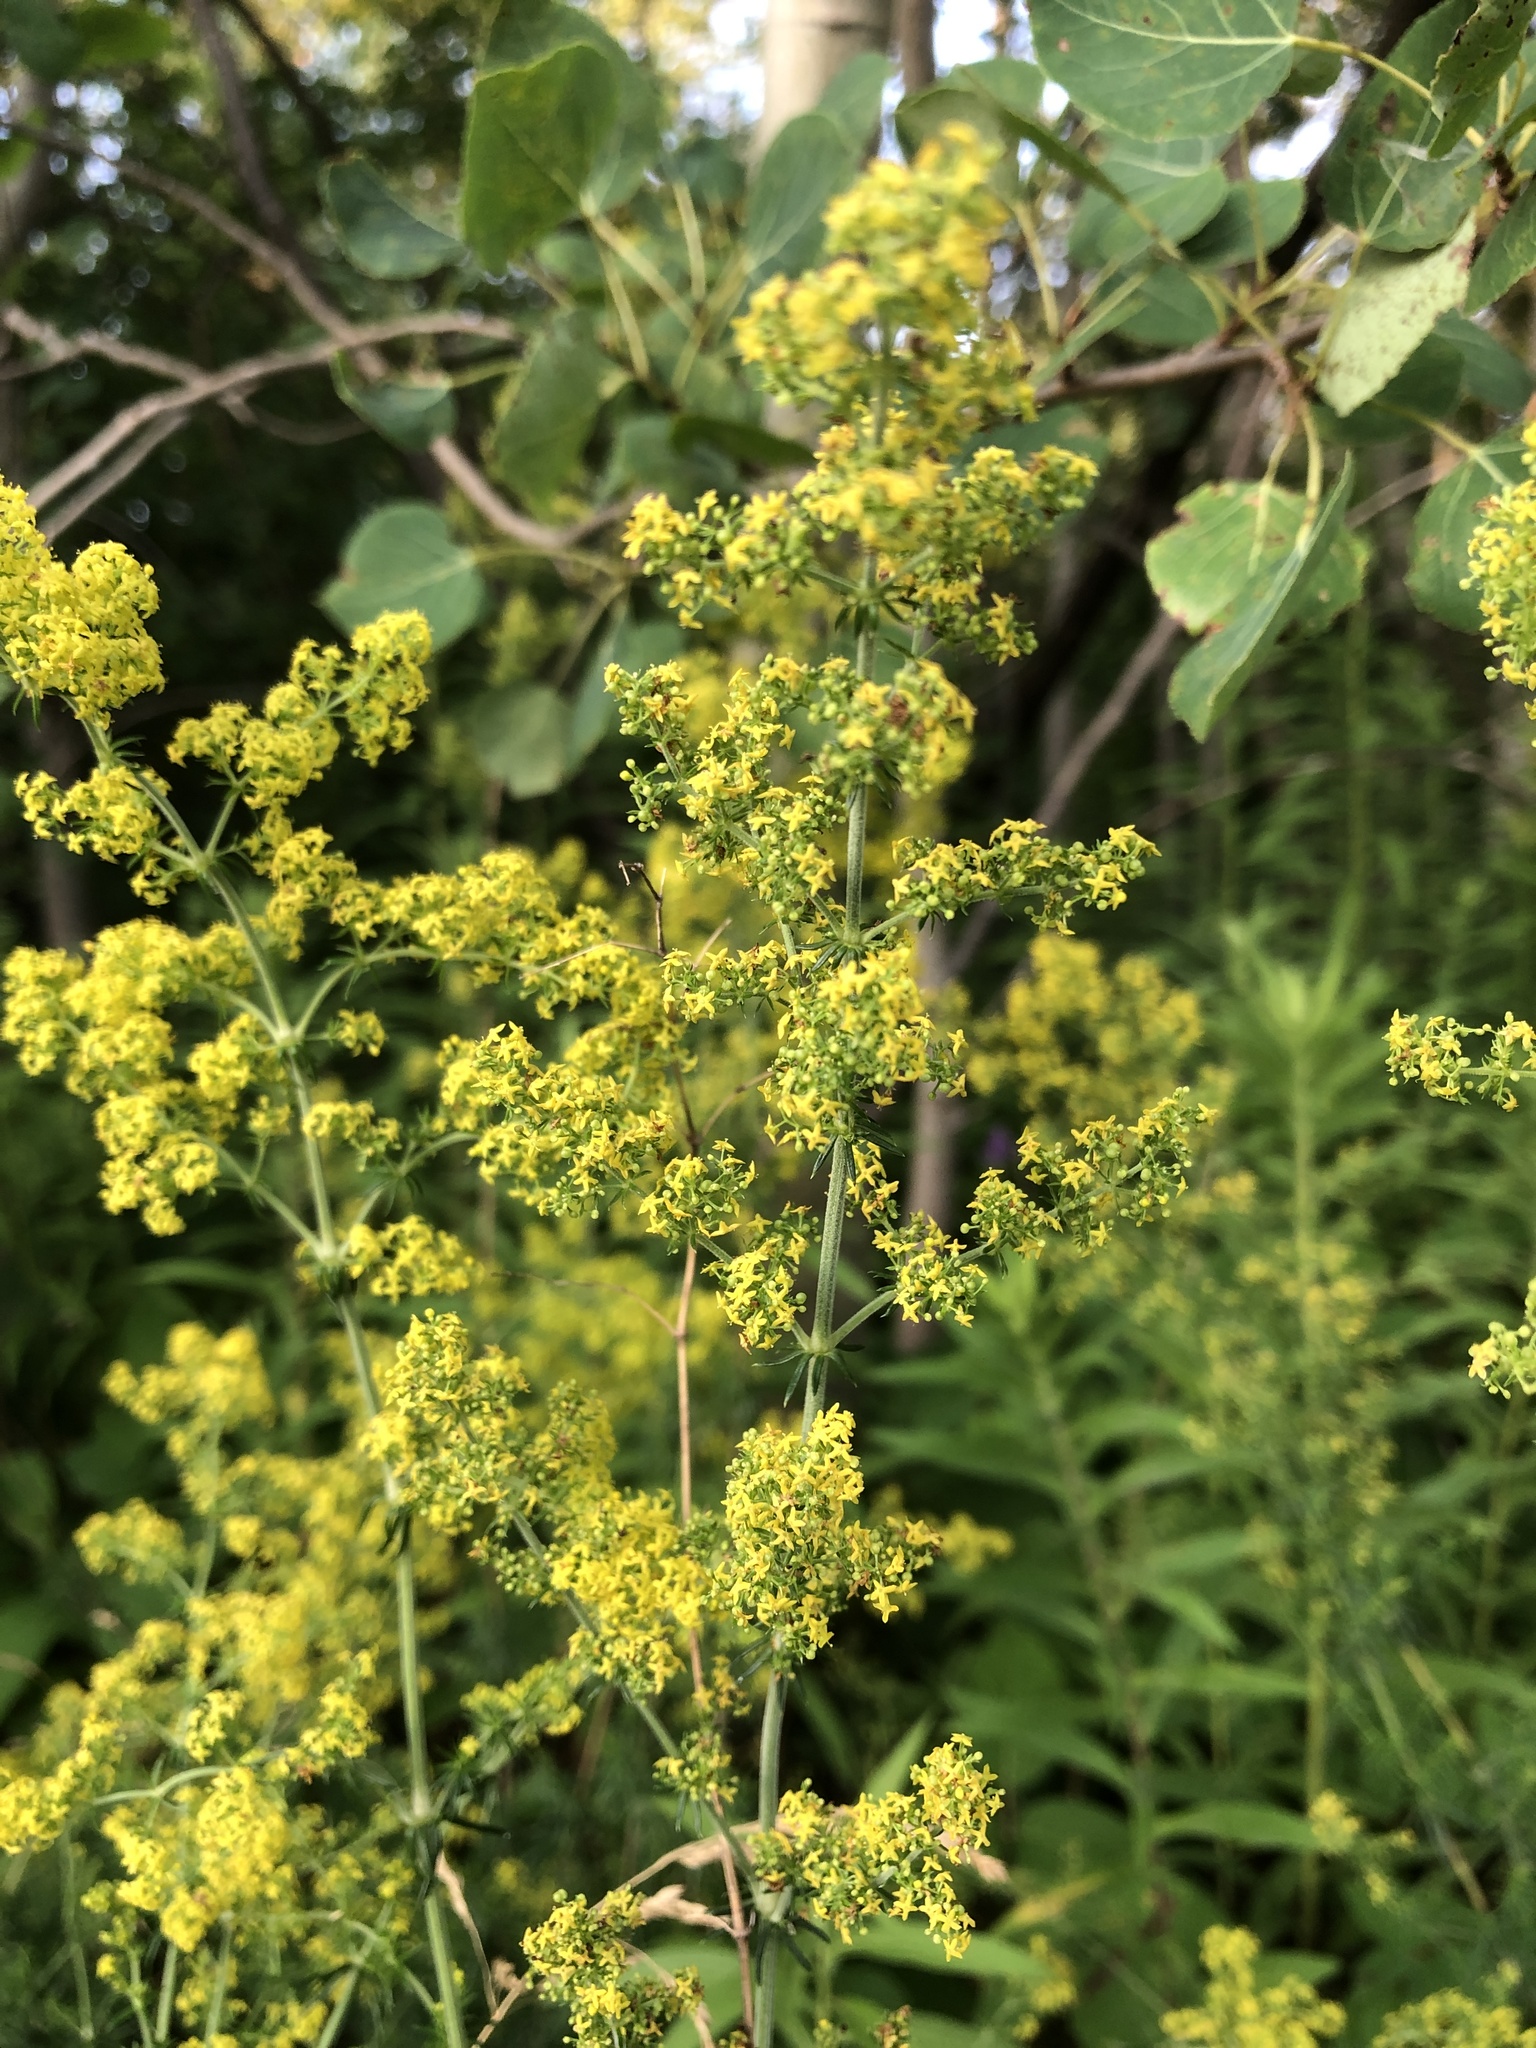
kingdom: Plantae
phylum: Tracheophyta
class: Magnoliopsida
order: Gentianales
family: Rubiaceae
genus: Galium
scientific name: Galium verum
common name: Lady's bedstraw
